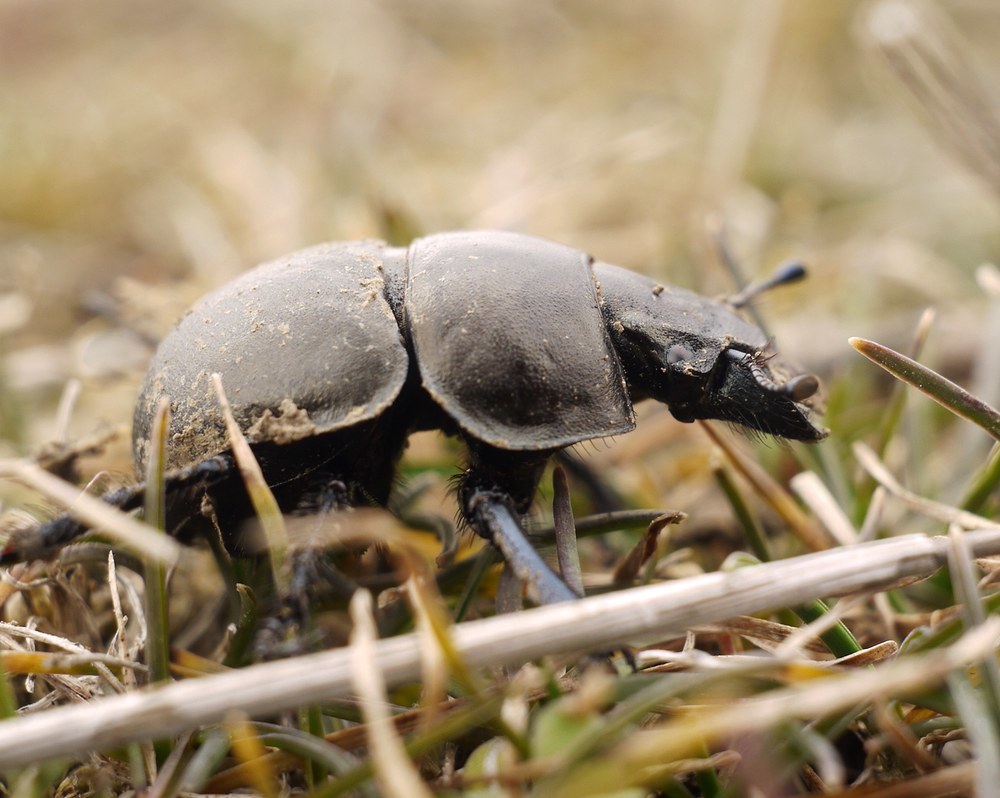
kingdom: Animalia
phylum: Arthropoda
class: Insecta
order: Coleoptera
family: Geotrupidae
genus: Lethrus
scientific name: Lethrus apterus
